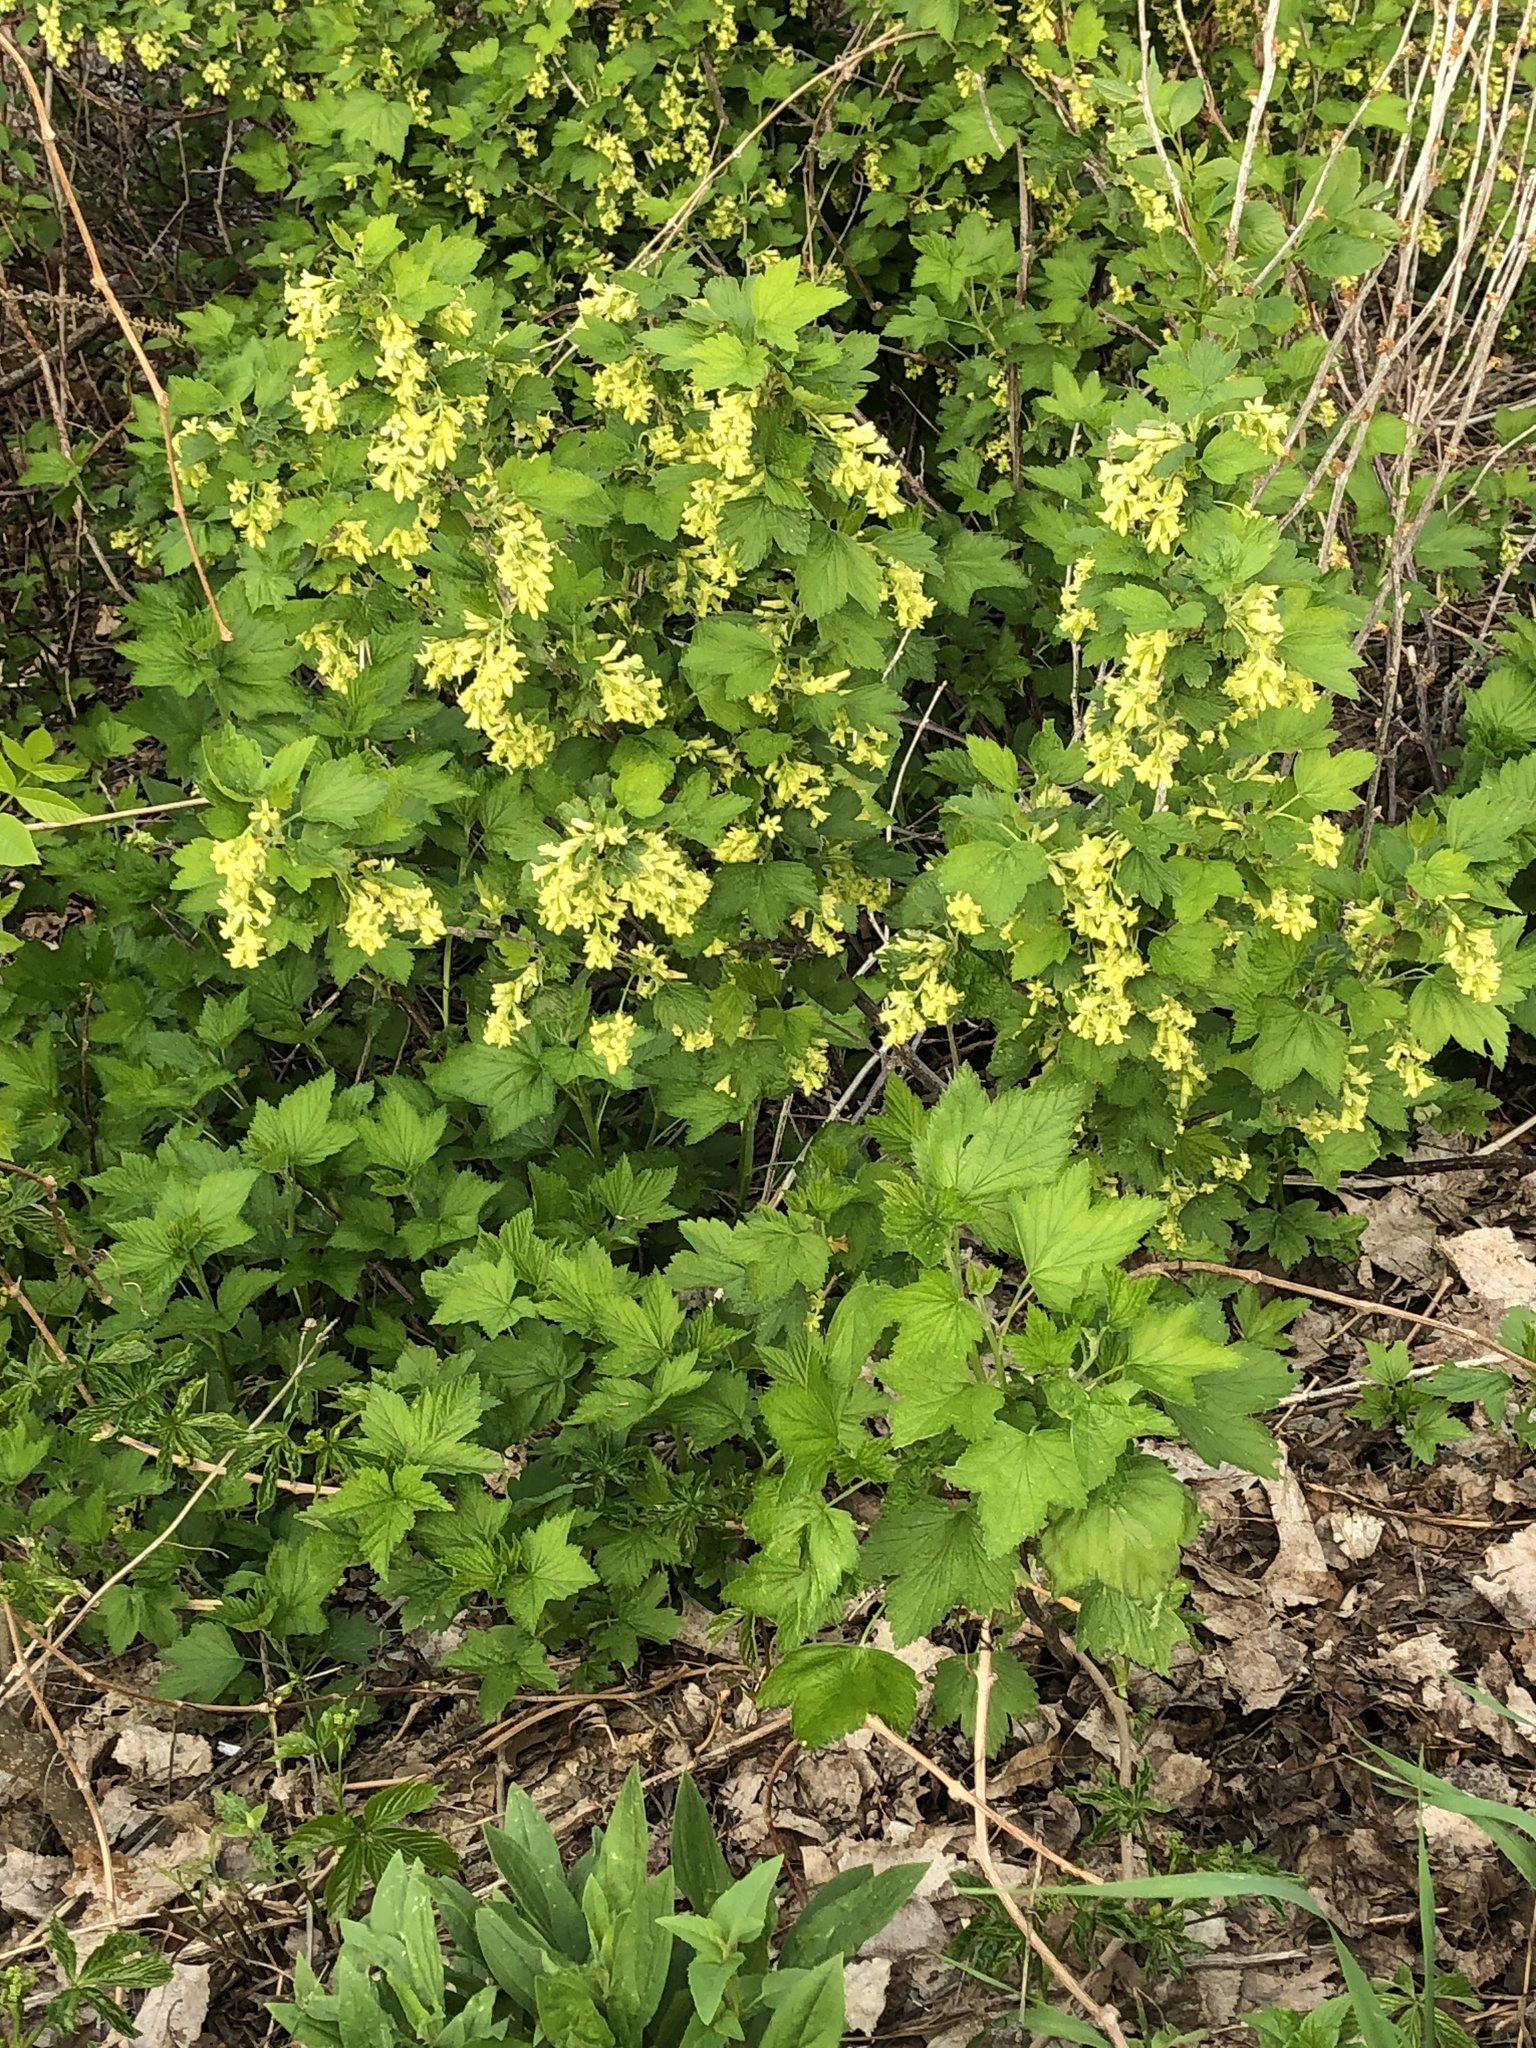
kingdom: Plantae
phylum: Tracheophyta
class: Magnoliopsida
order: Saxifragales
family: Grossulariaceae
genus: Ribes
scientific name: Ribes americanum
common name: American black currant
